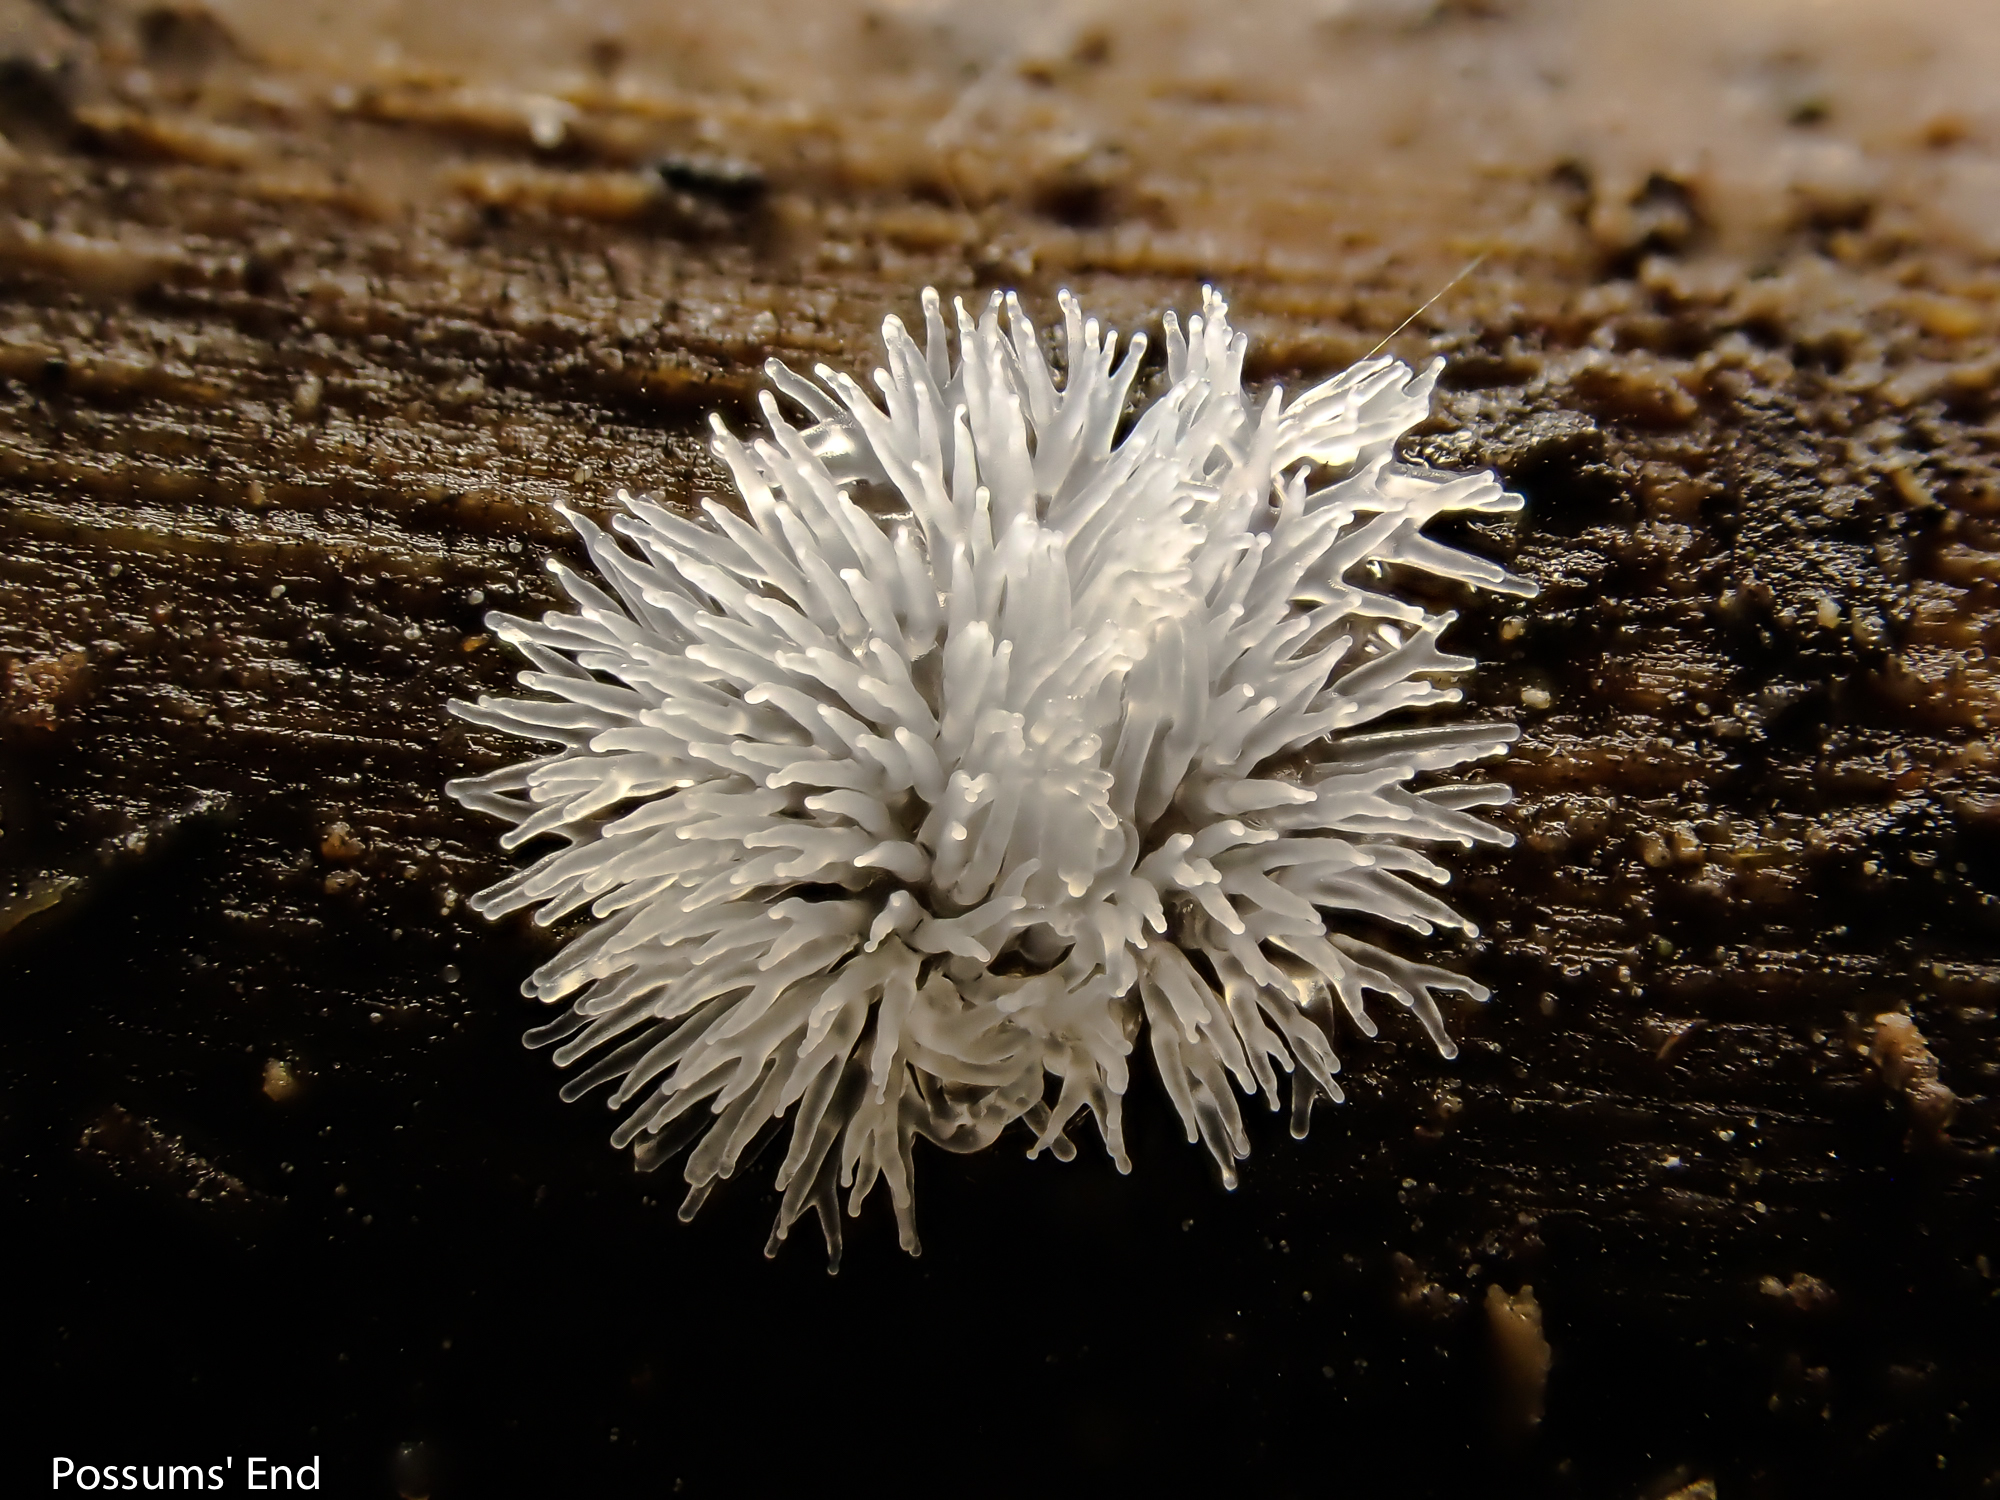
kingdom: Protozoa
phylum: Mycetozoa
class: Protosteliomycetes
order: Ceratiomyxales
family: Ceratiomyxaceae
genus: Ceratiomyxa
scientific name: Ceratiomyxa fruticulosa
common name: Honeycomb coral slime mold
